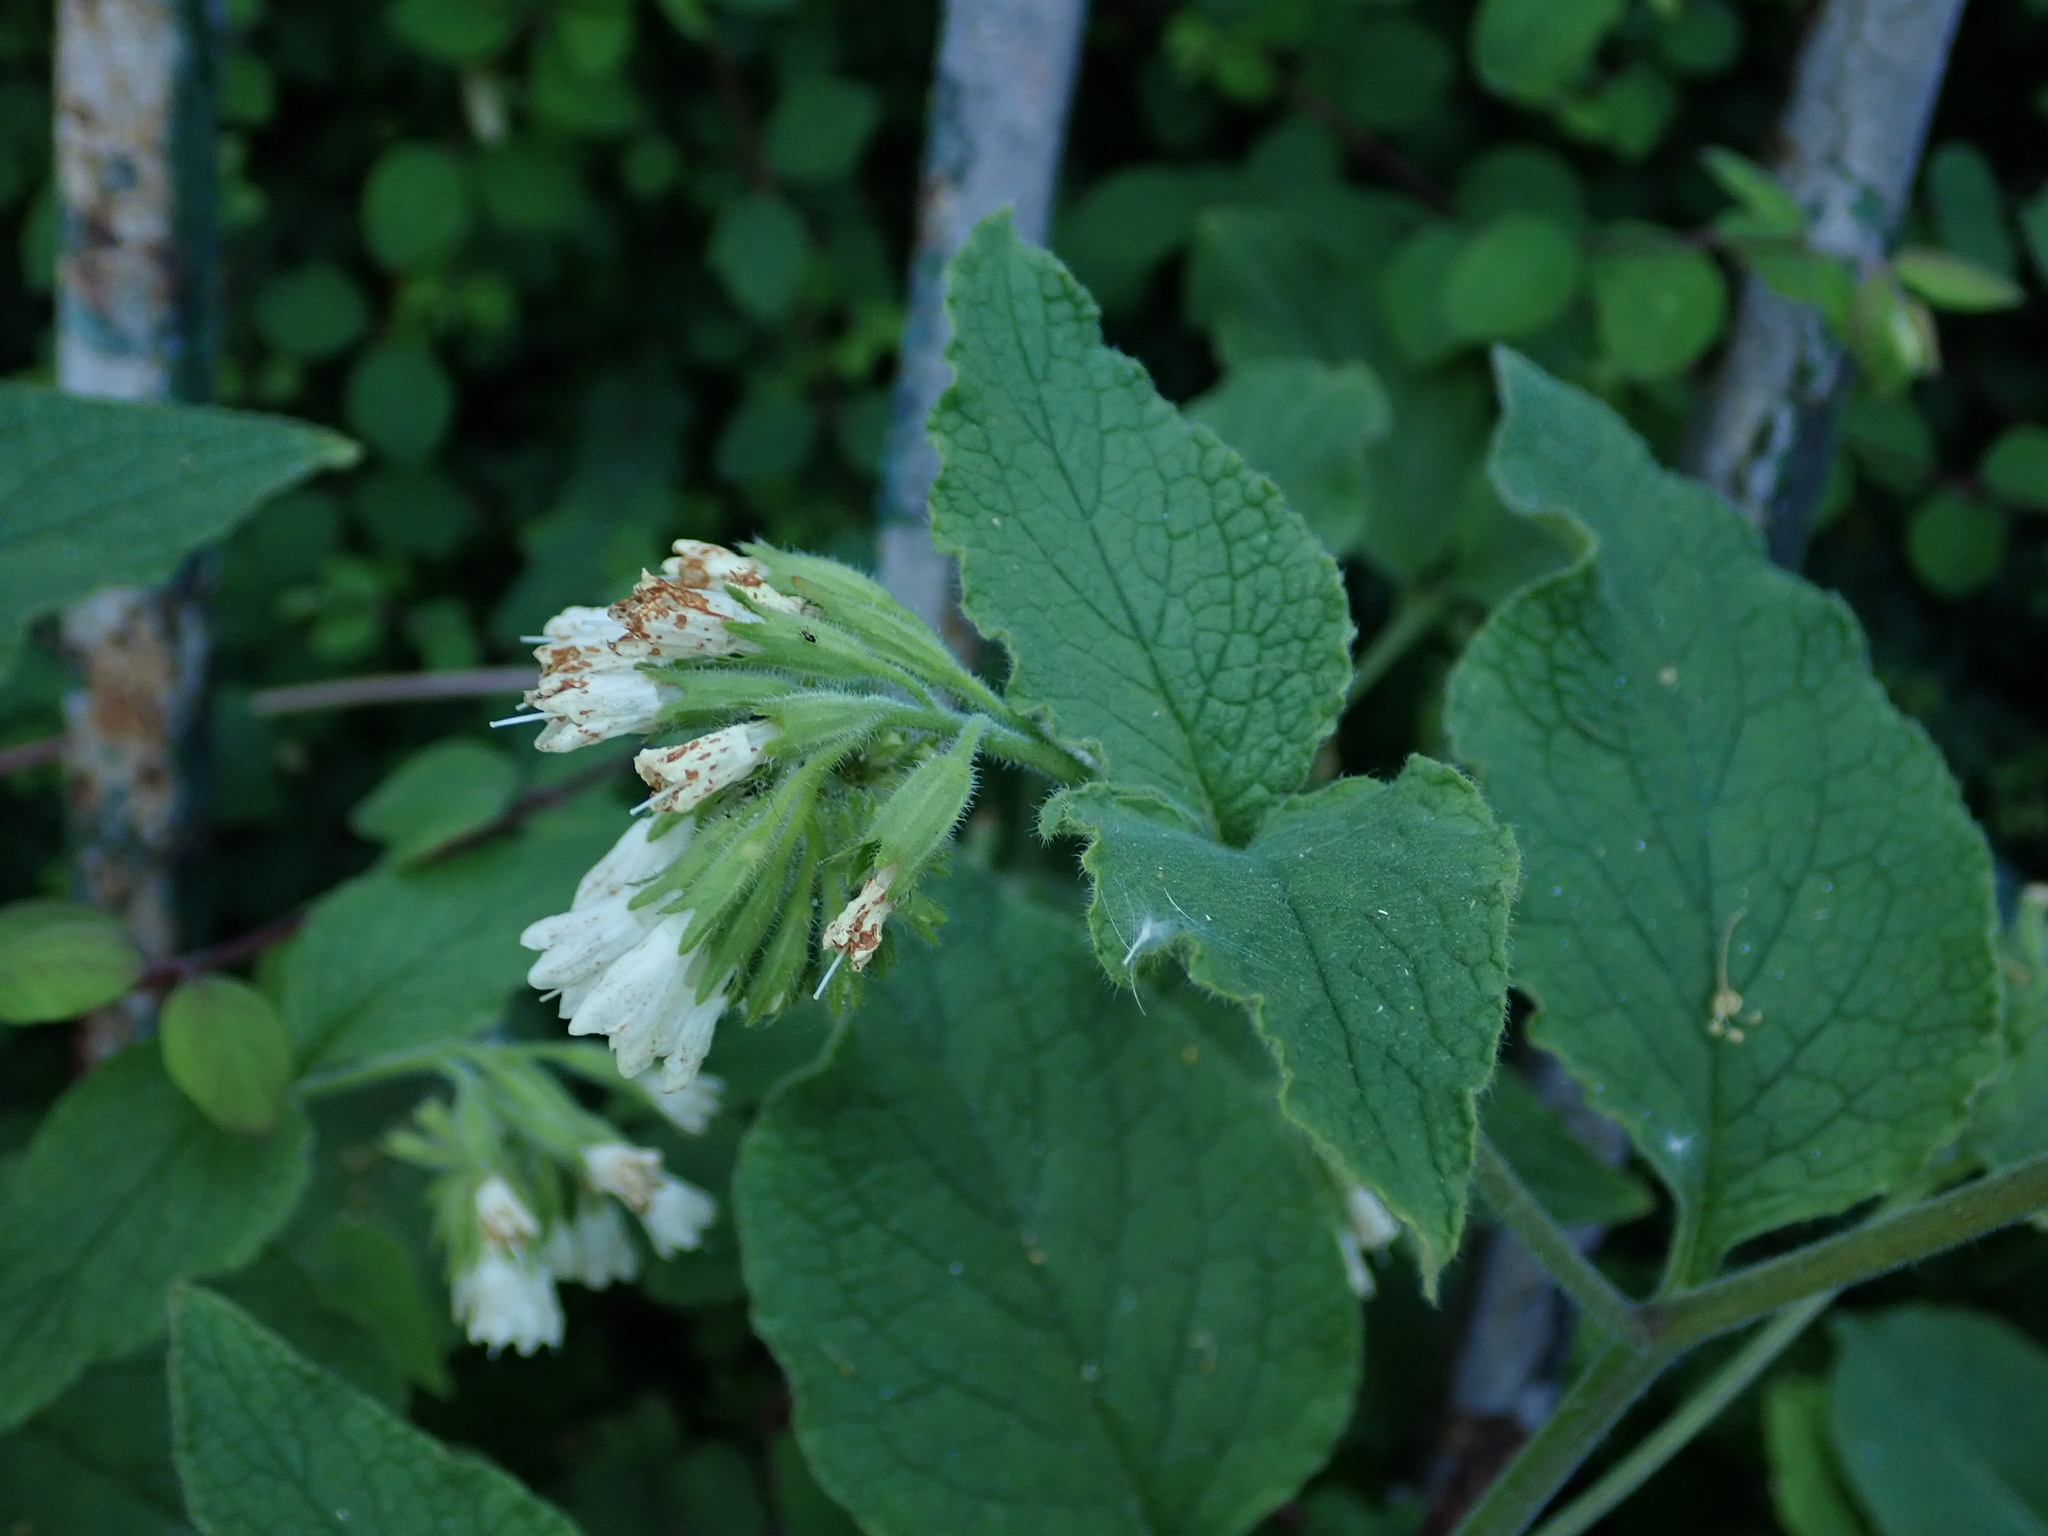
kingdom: Plantae
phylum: Tracheophyta
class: Magnoliopsida
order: Boraginales
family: Boraginaceae
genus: Symphytum
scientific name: Symphytum orientale
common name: White comfrey
